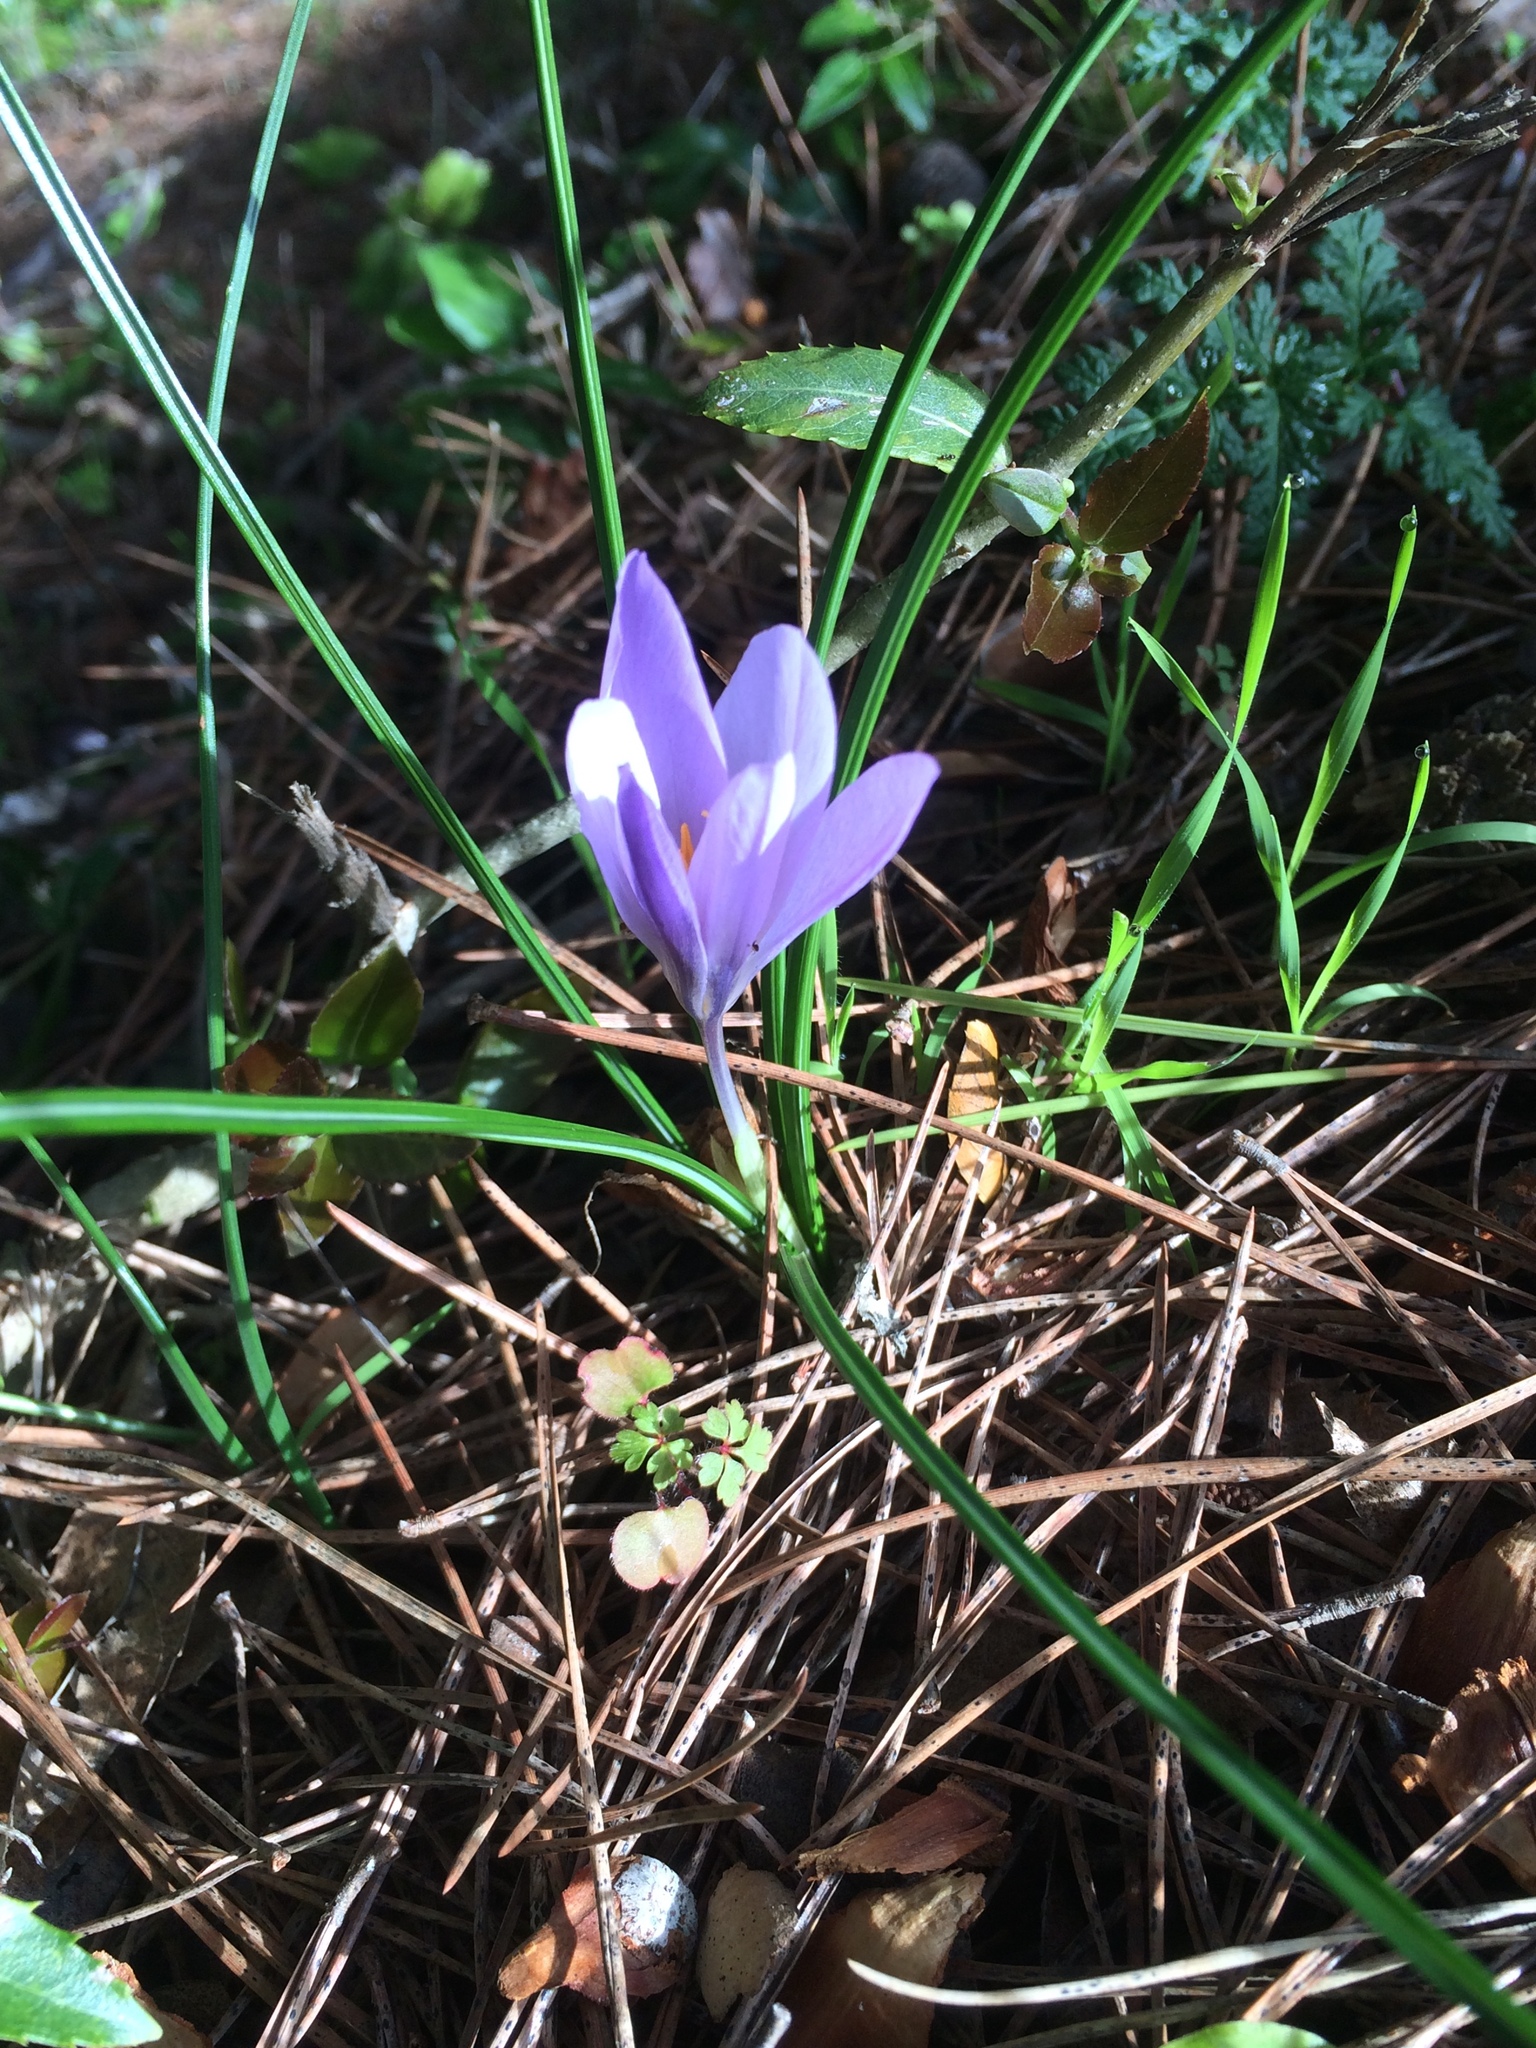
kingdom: Plantae
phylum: Tracheophyta
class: Liliopsida
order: Asparagales
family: Iridaceae
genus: Crocus
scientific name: Crocus serotinus
